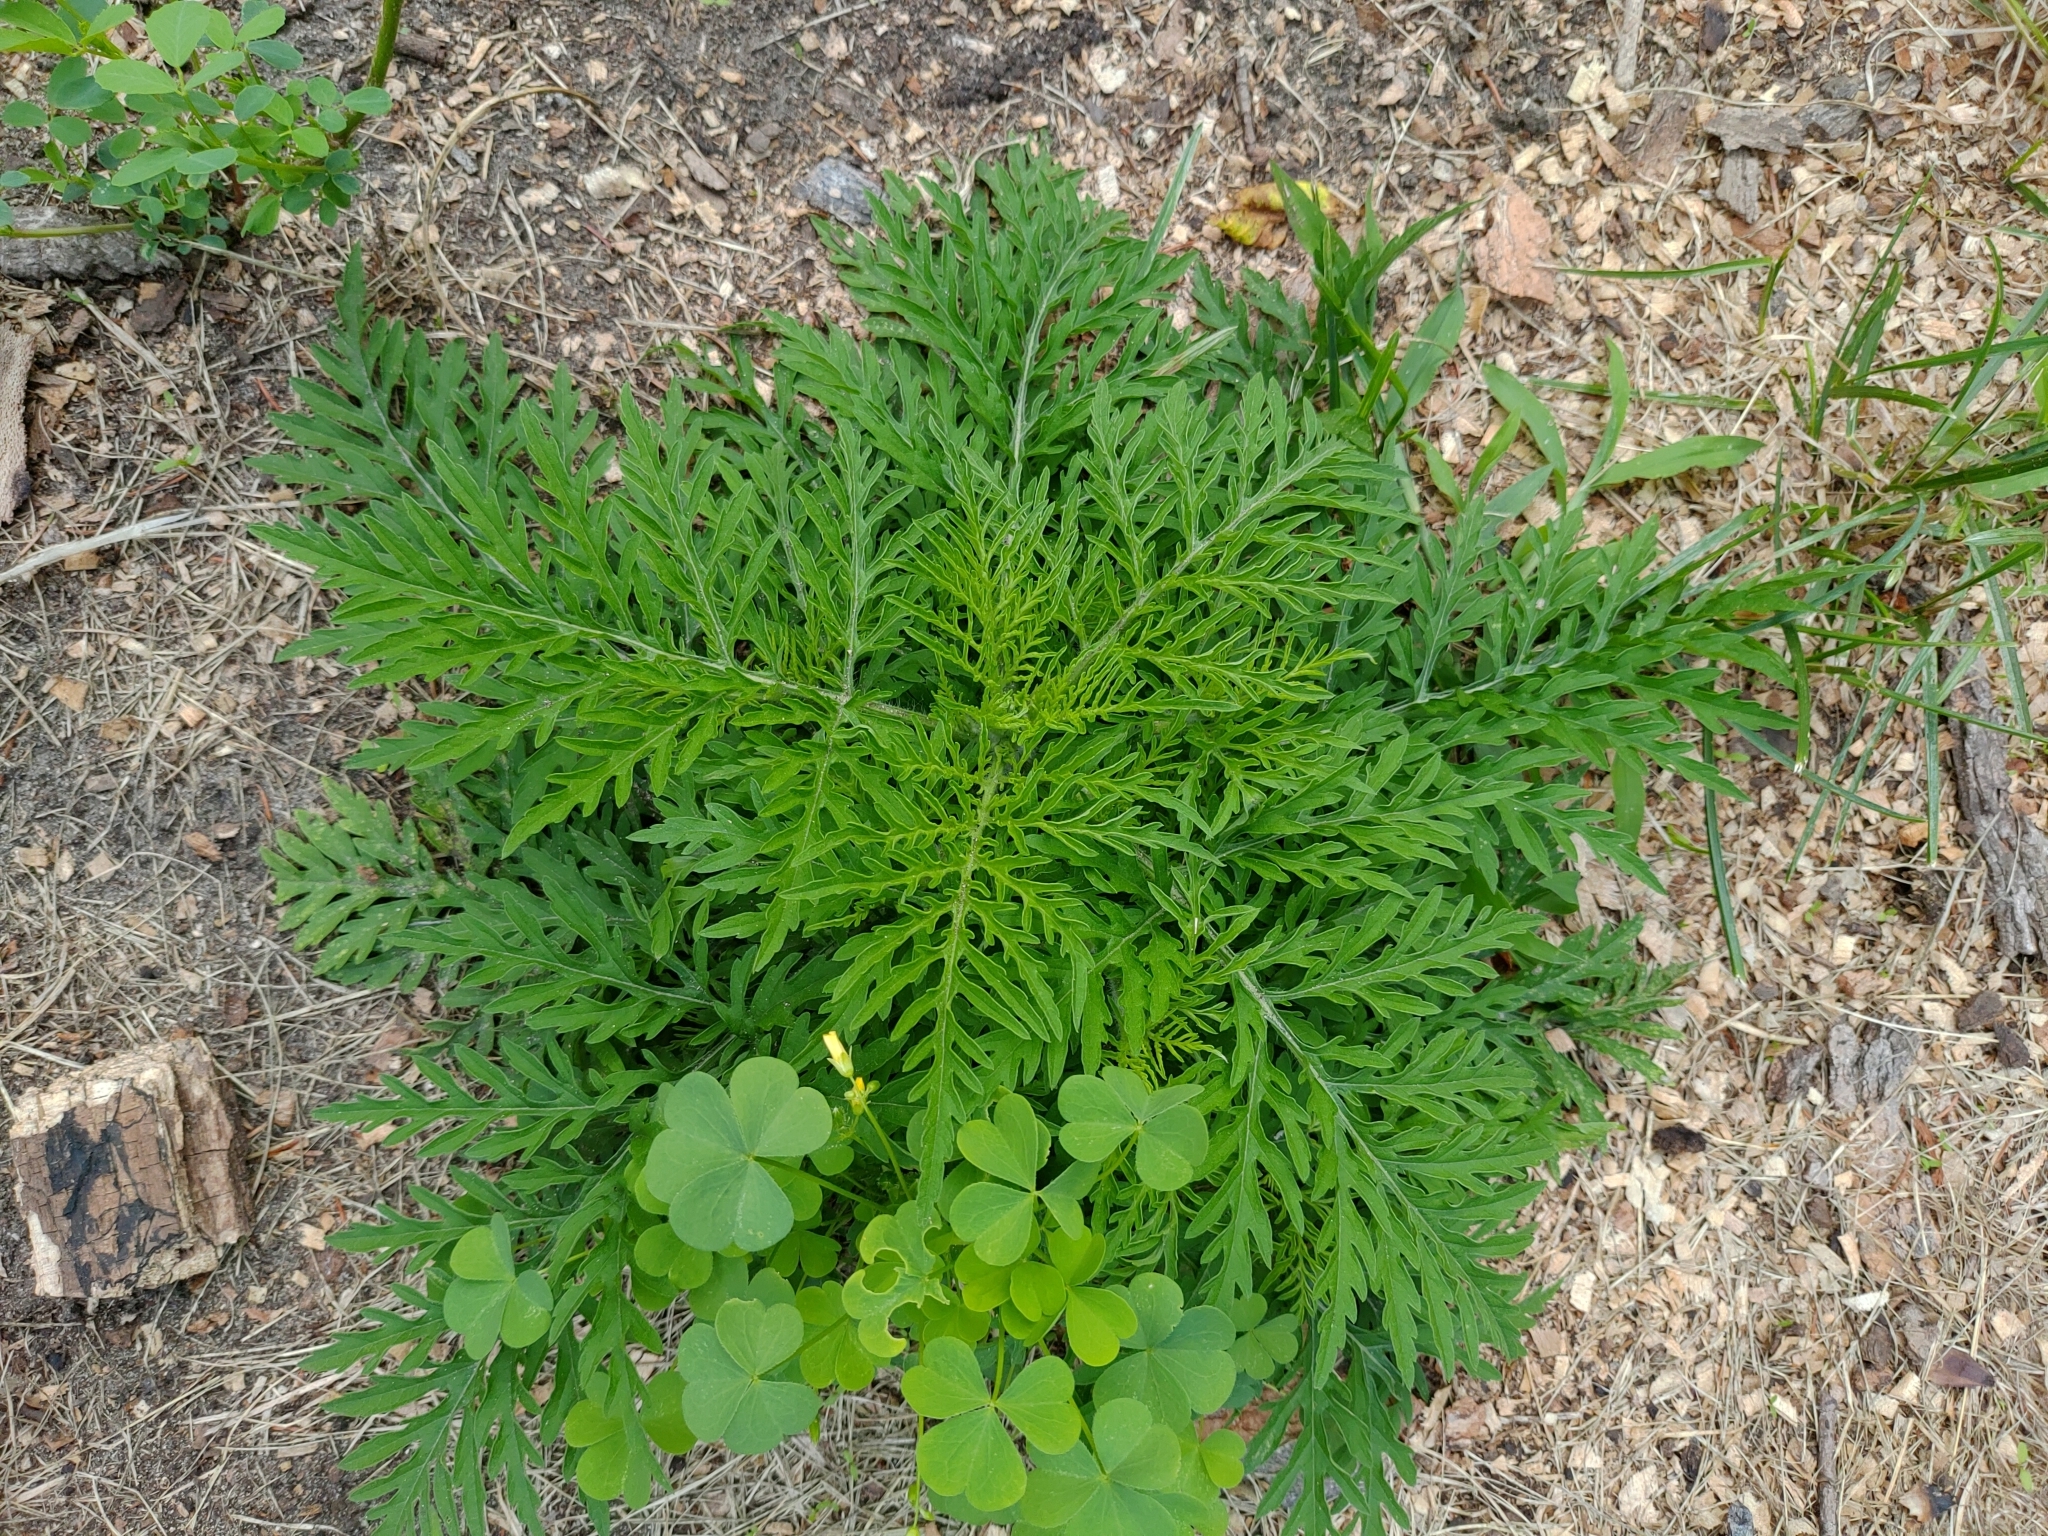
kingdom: Plantae
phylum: Tracheophyta
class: Magnoliopsida
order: Asterales
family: Asteraceae
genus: Ambrosia
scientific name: Ambrosia artemisiifolia
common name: Annual ragweed
